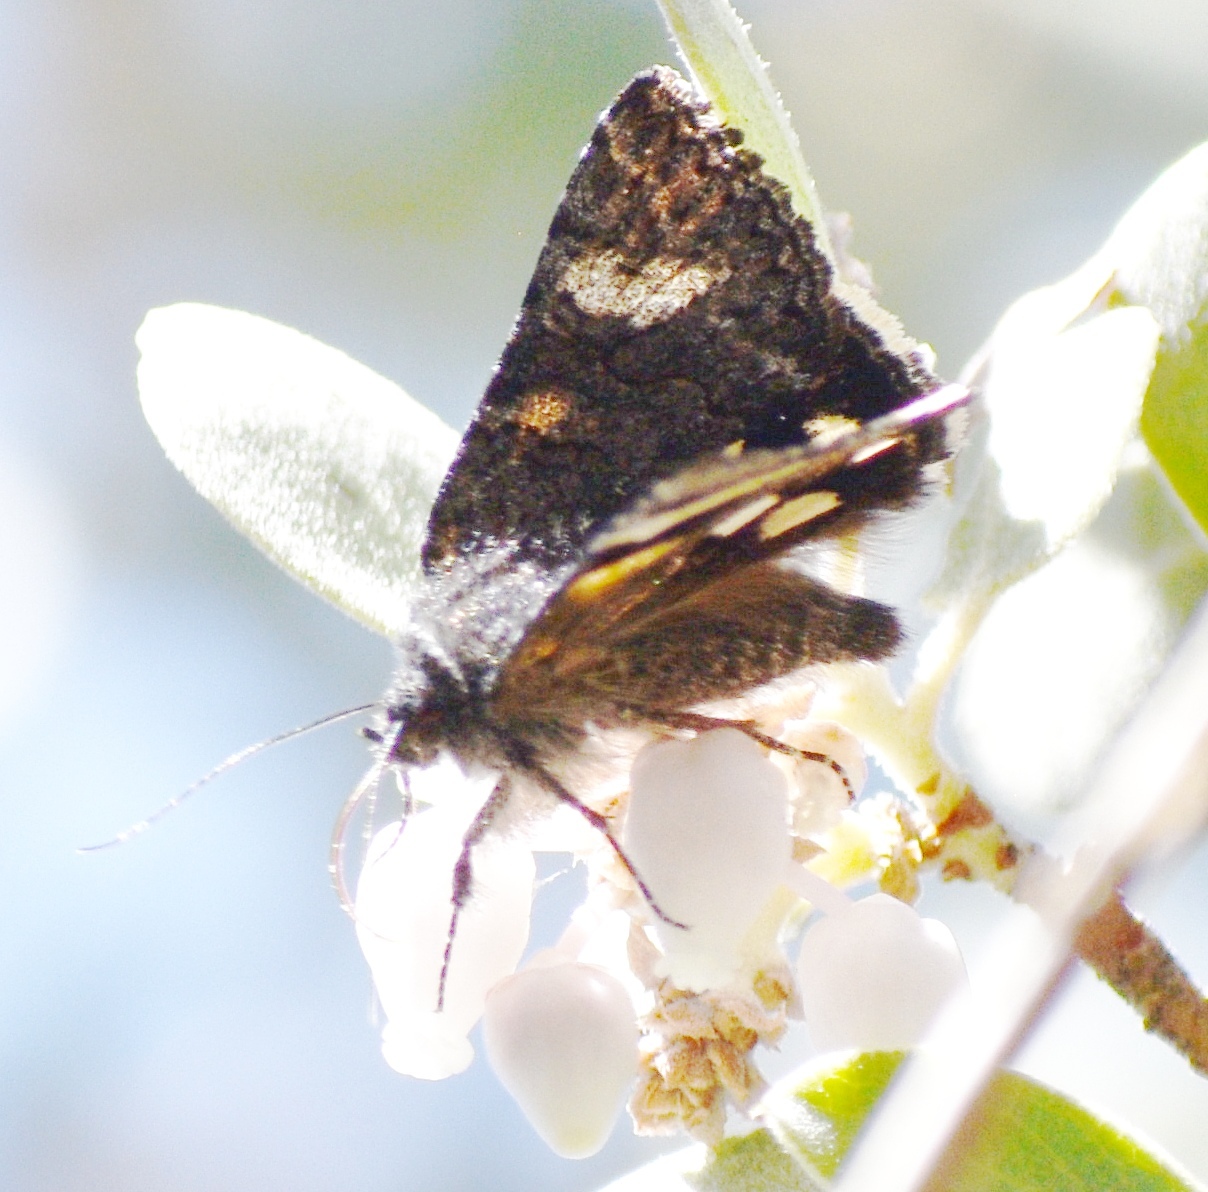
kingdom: Animalia
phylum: Arthropoda
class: Insecta
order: Lepidoptera
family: Erebidae
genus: Litocala
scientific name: Litocala sexsignata
